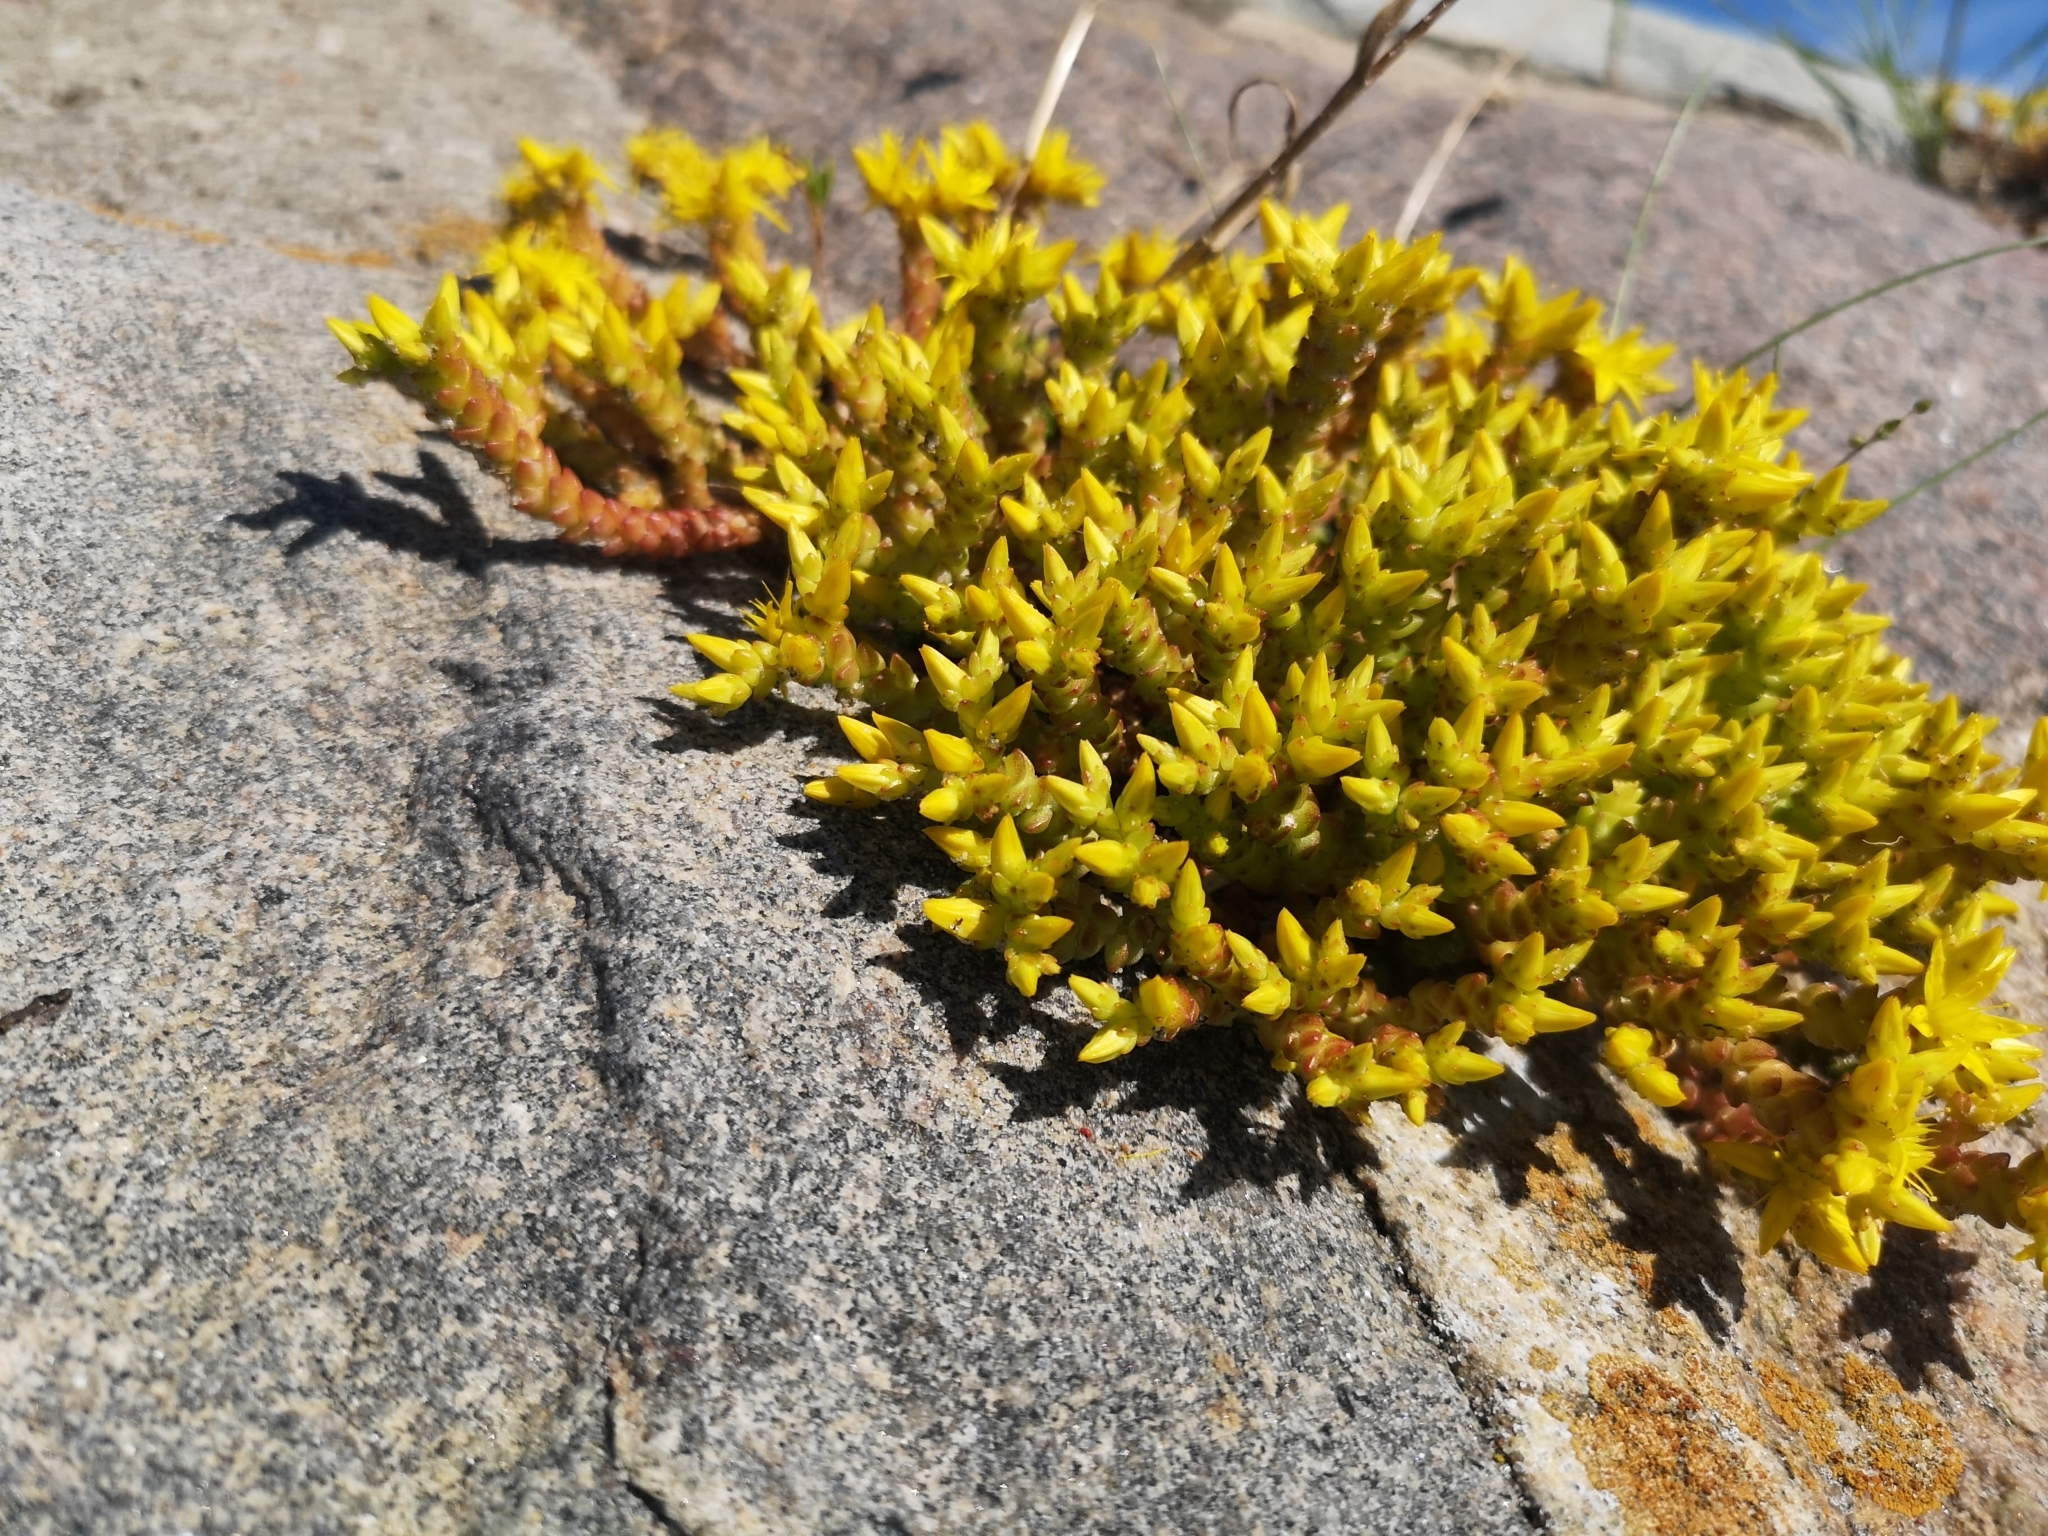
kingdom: Plantae
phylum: Tracheophyta
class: Magnoliopsida
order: Saxifragales
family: Crassulaceae
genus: Sedum
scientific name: Sedum acre
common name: Biting stonecrop
